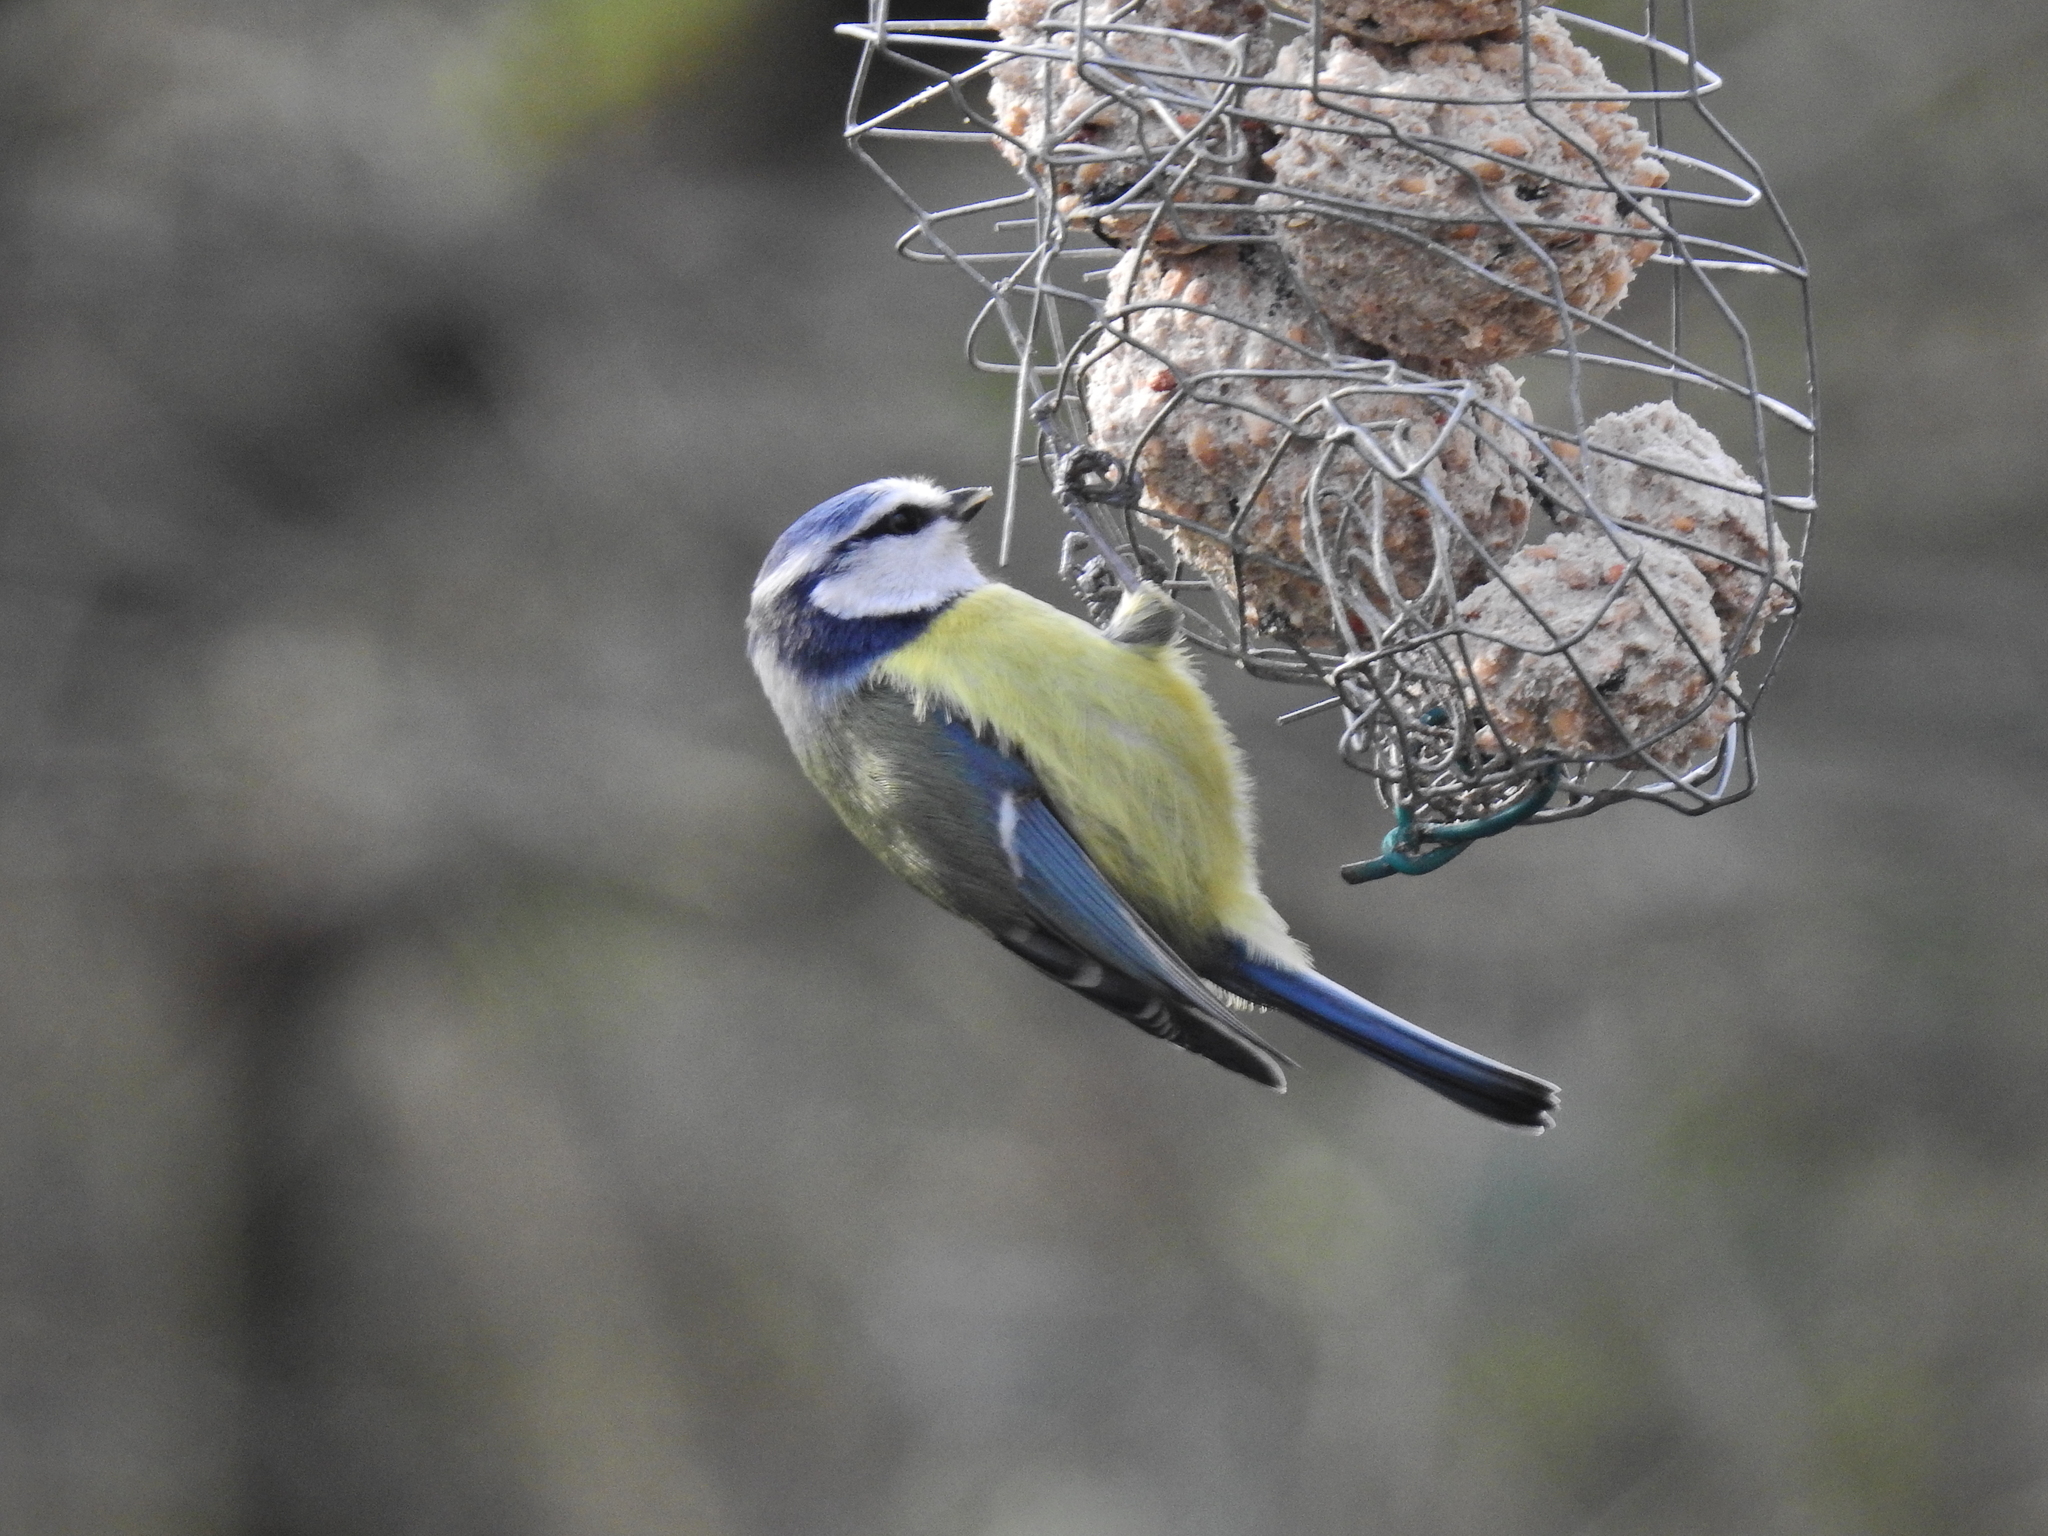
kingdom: Animalia
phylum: Chordata
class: Aves
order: Passeriformes
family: Paridae
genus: Cyanistes
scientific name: Cyanistes caeruleus
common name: Eurasian blue tit
